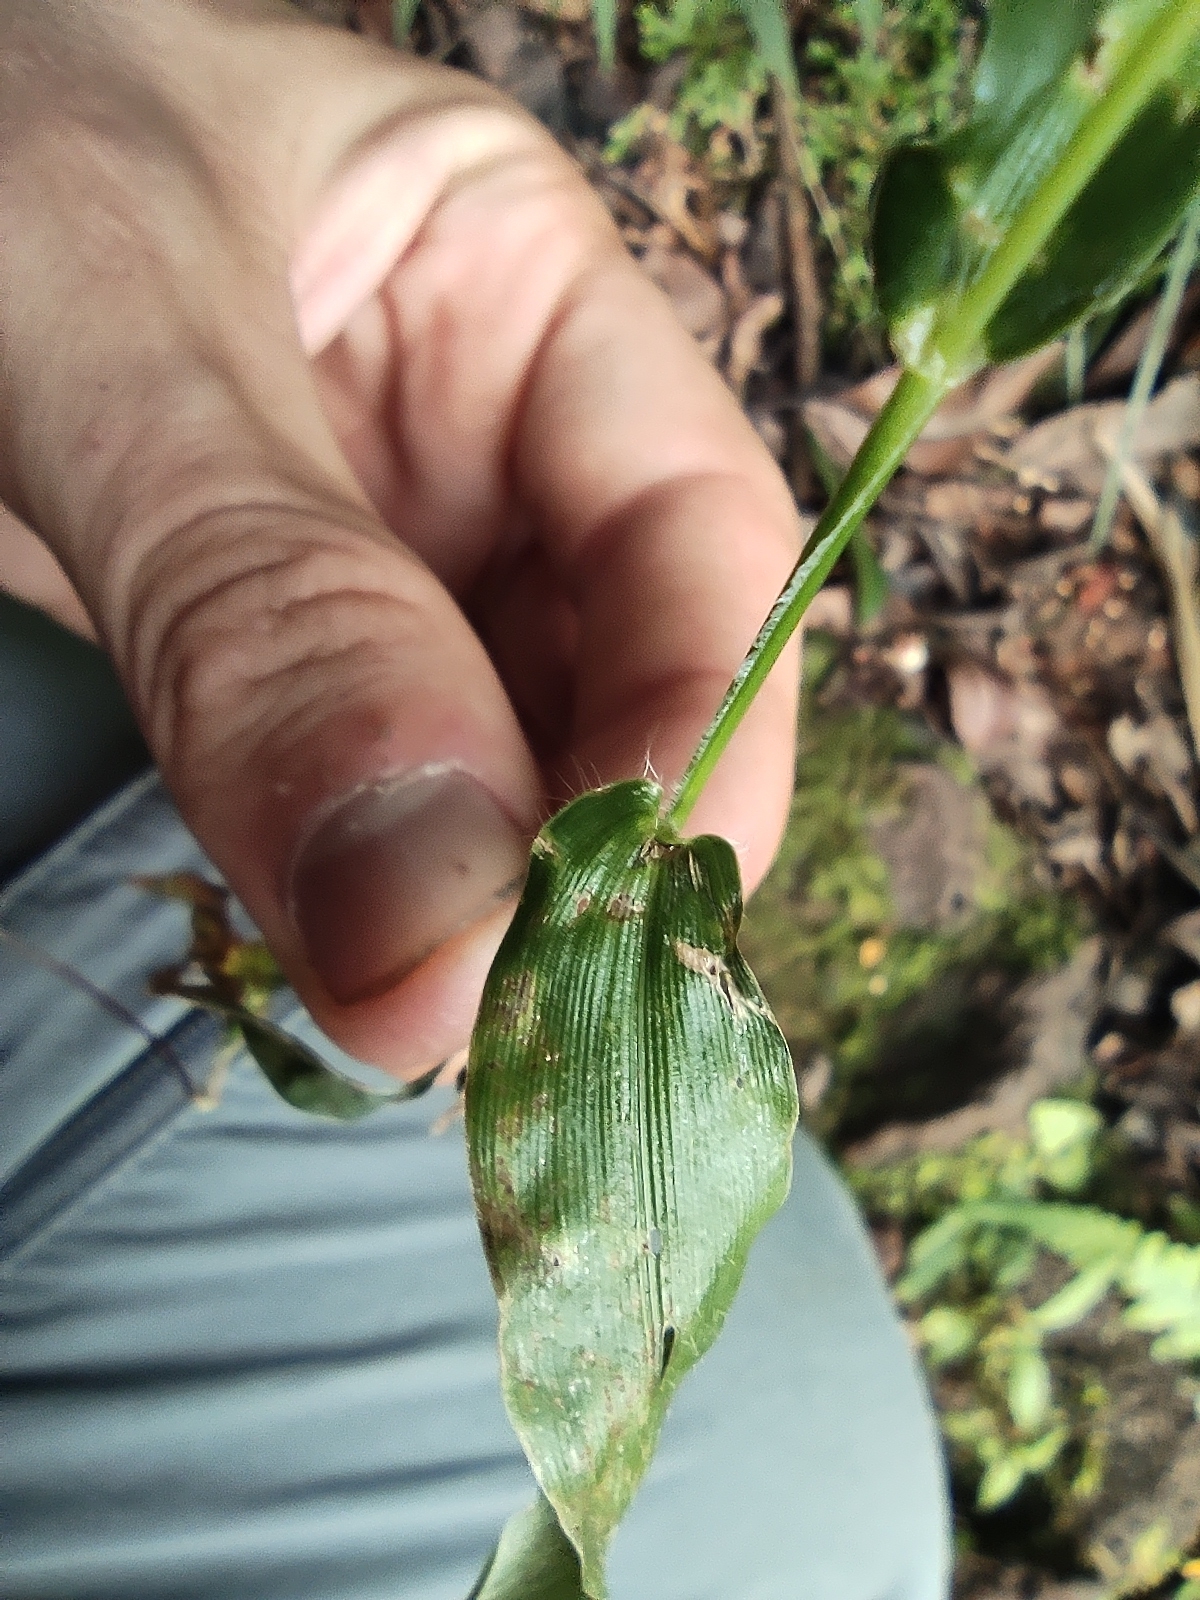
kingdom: Plantae
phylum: Tracheophyta
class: Liliopsida
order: Poales
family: Poaceae
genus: Panicum
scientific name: Panicum brevifolium
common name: Shortleaf panic grass
